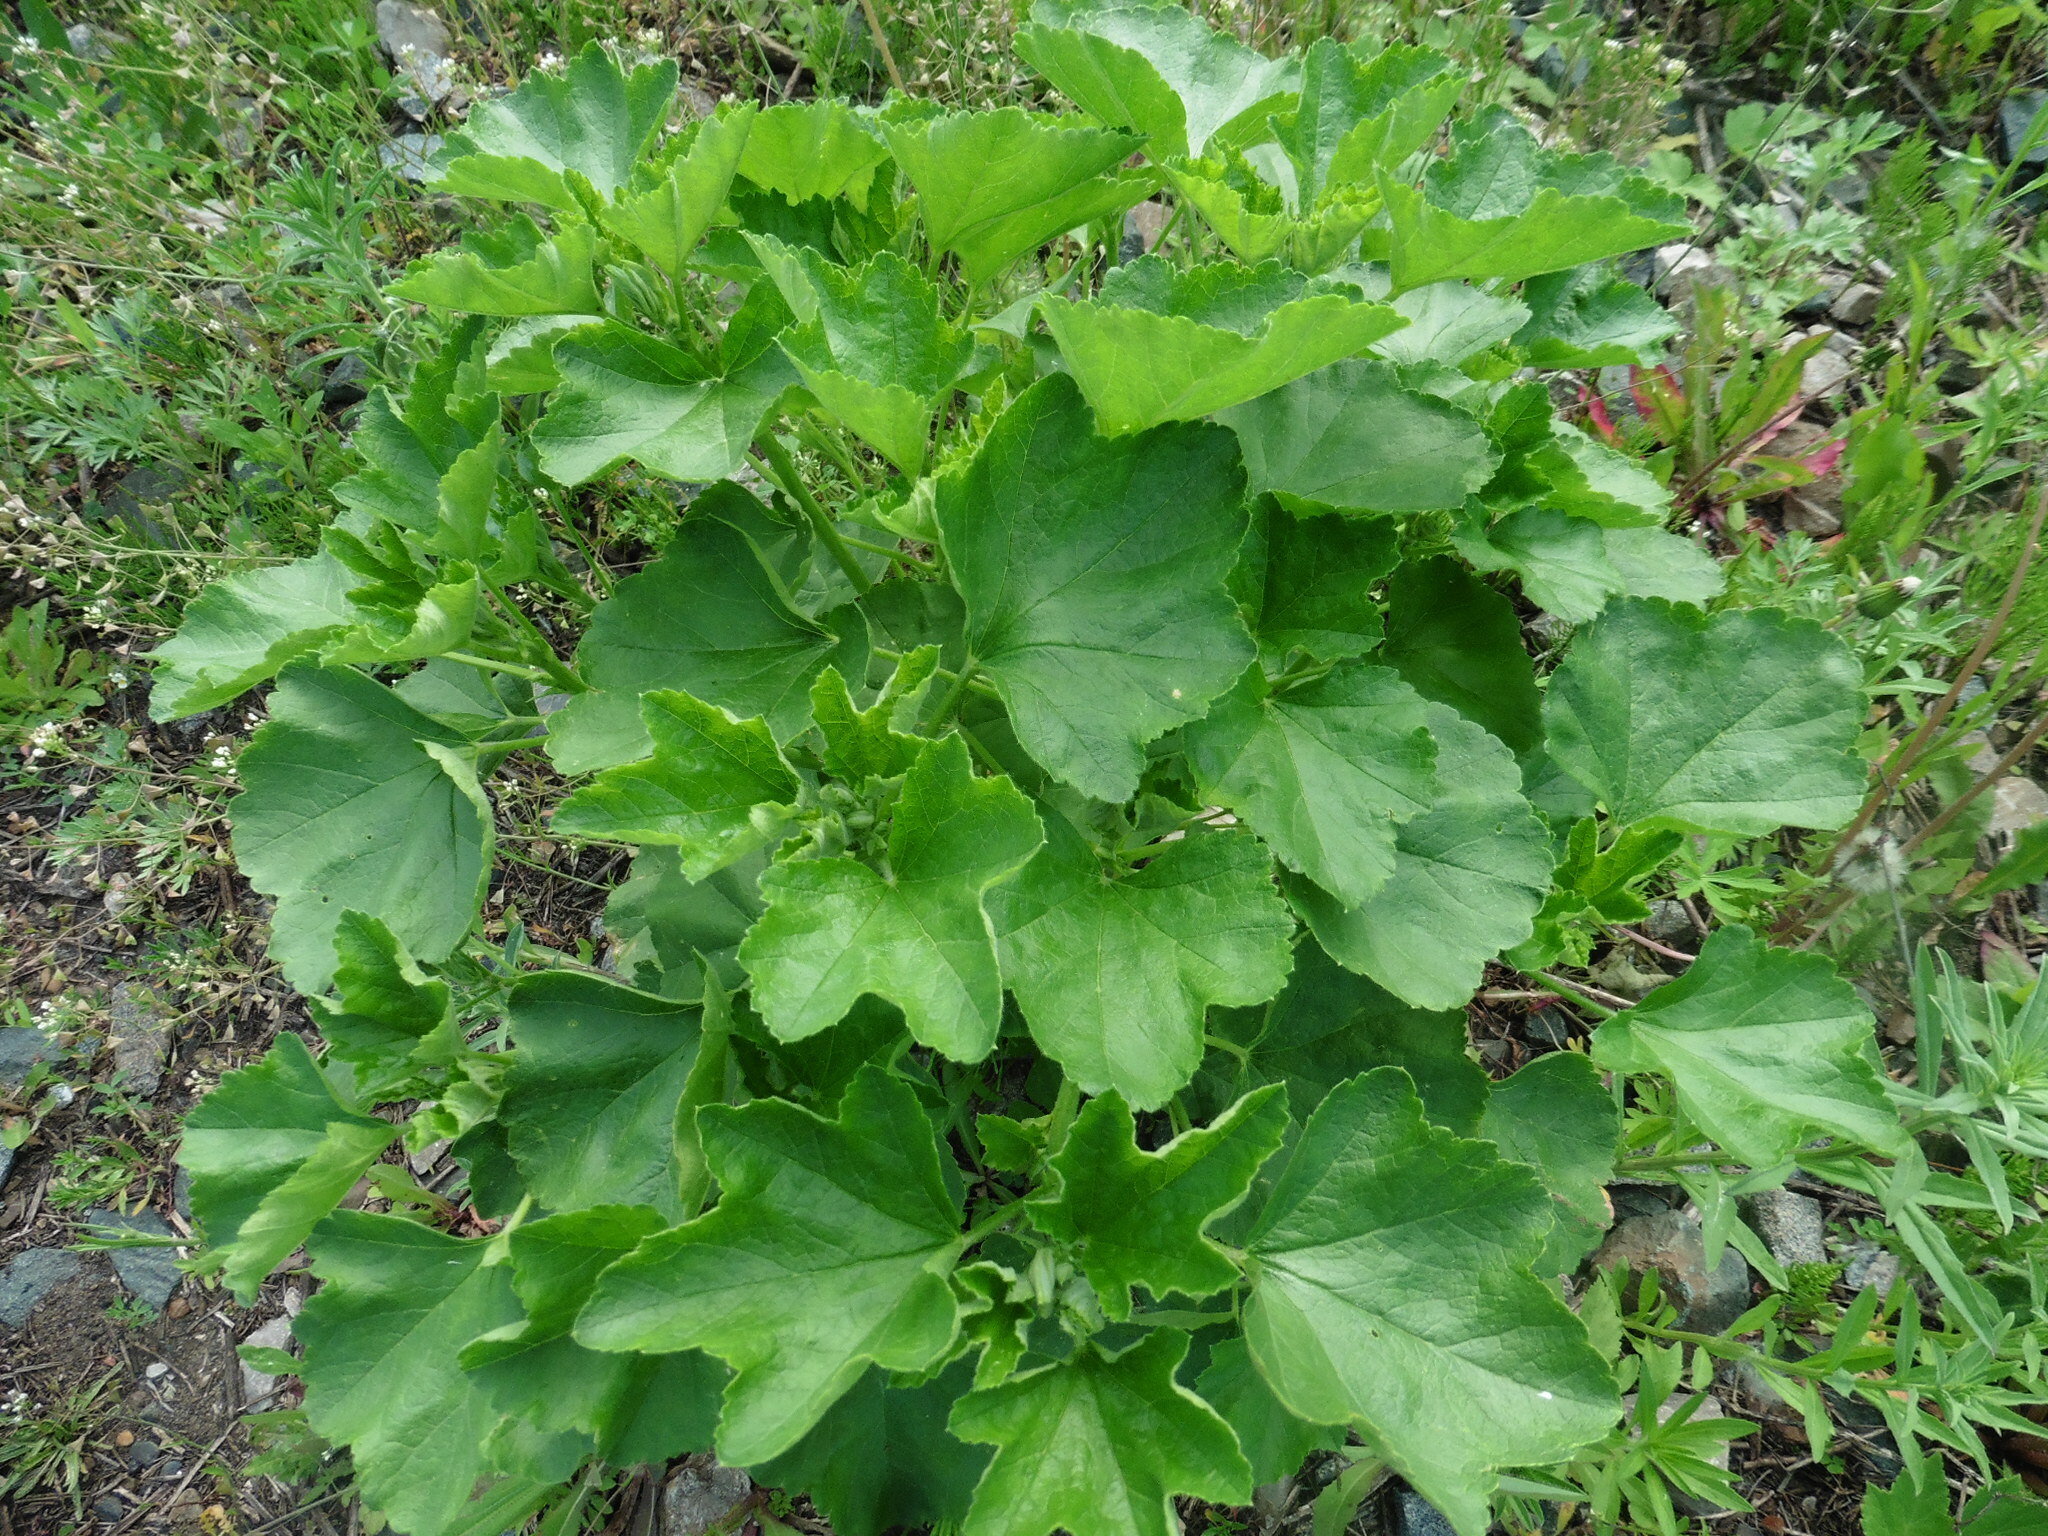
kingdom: Plantae
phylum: Tracheophyta
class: Magnoliopsida
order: Malvales
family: Malvaceae
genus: Malva
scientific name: Malva thuringiaca
